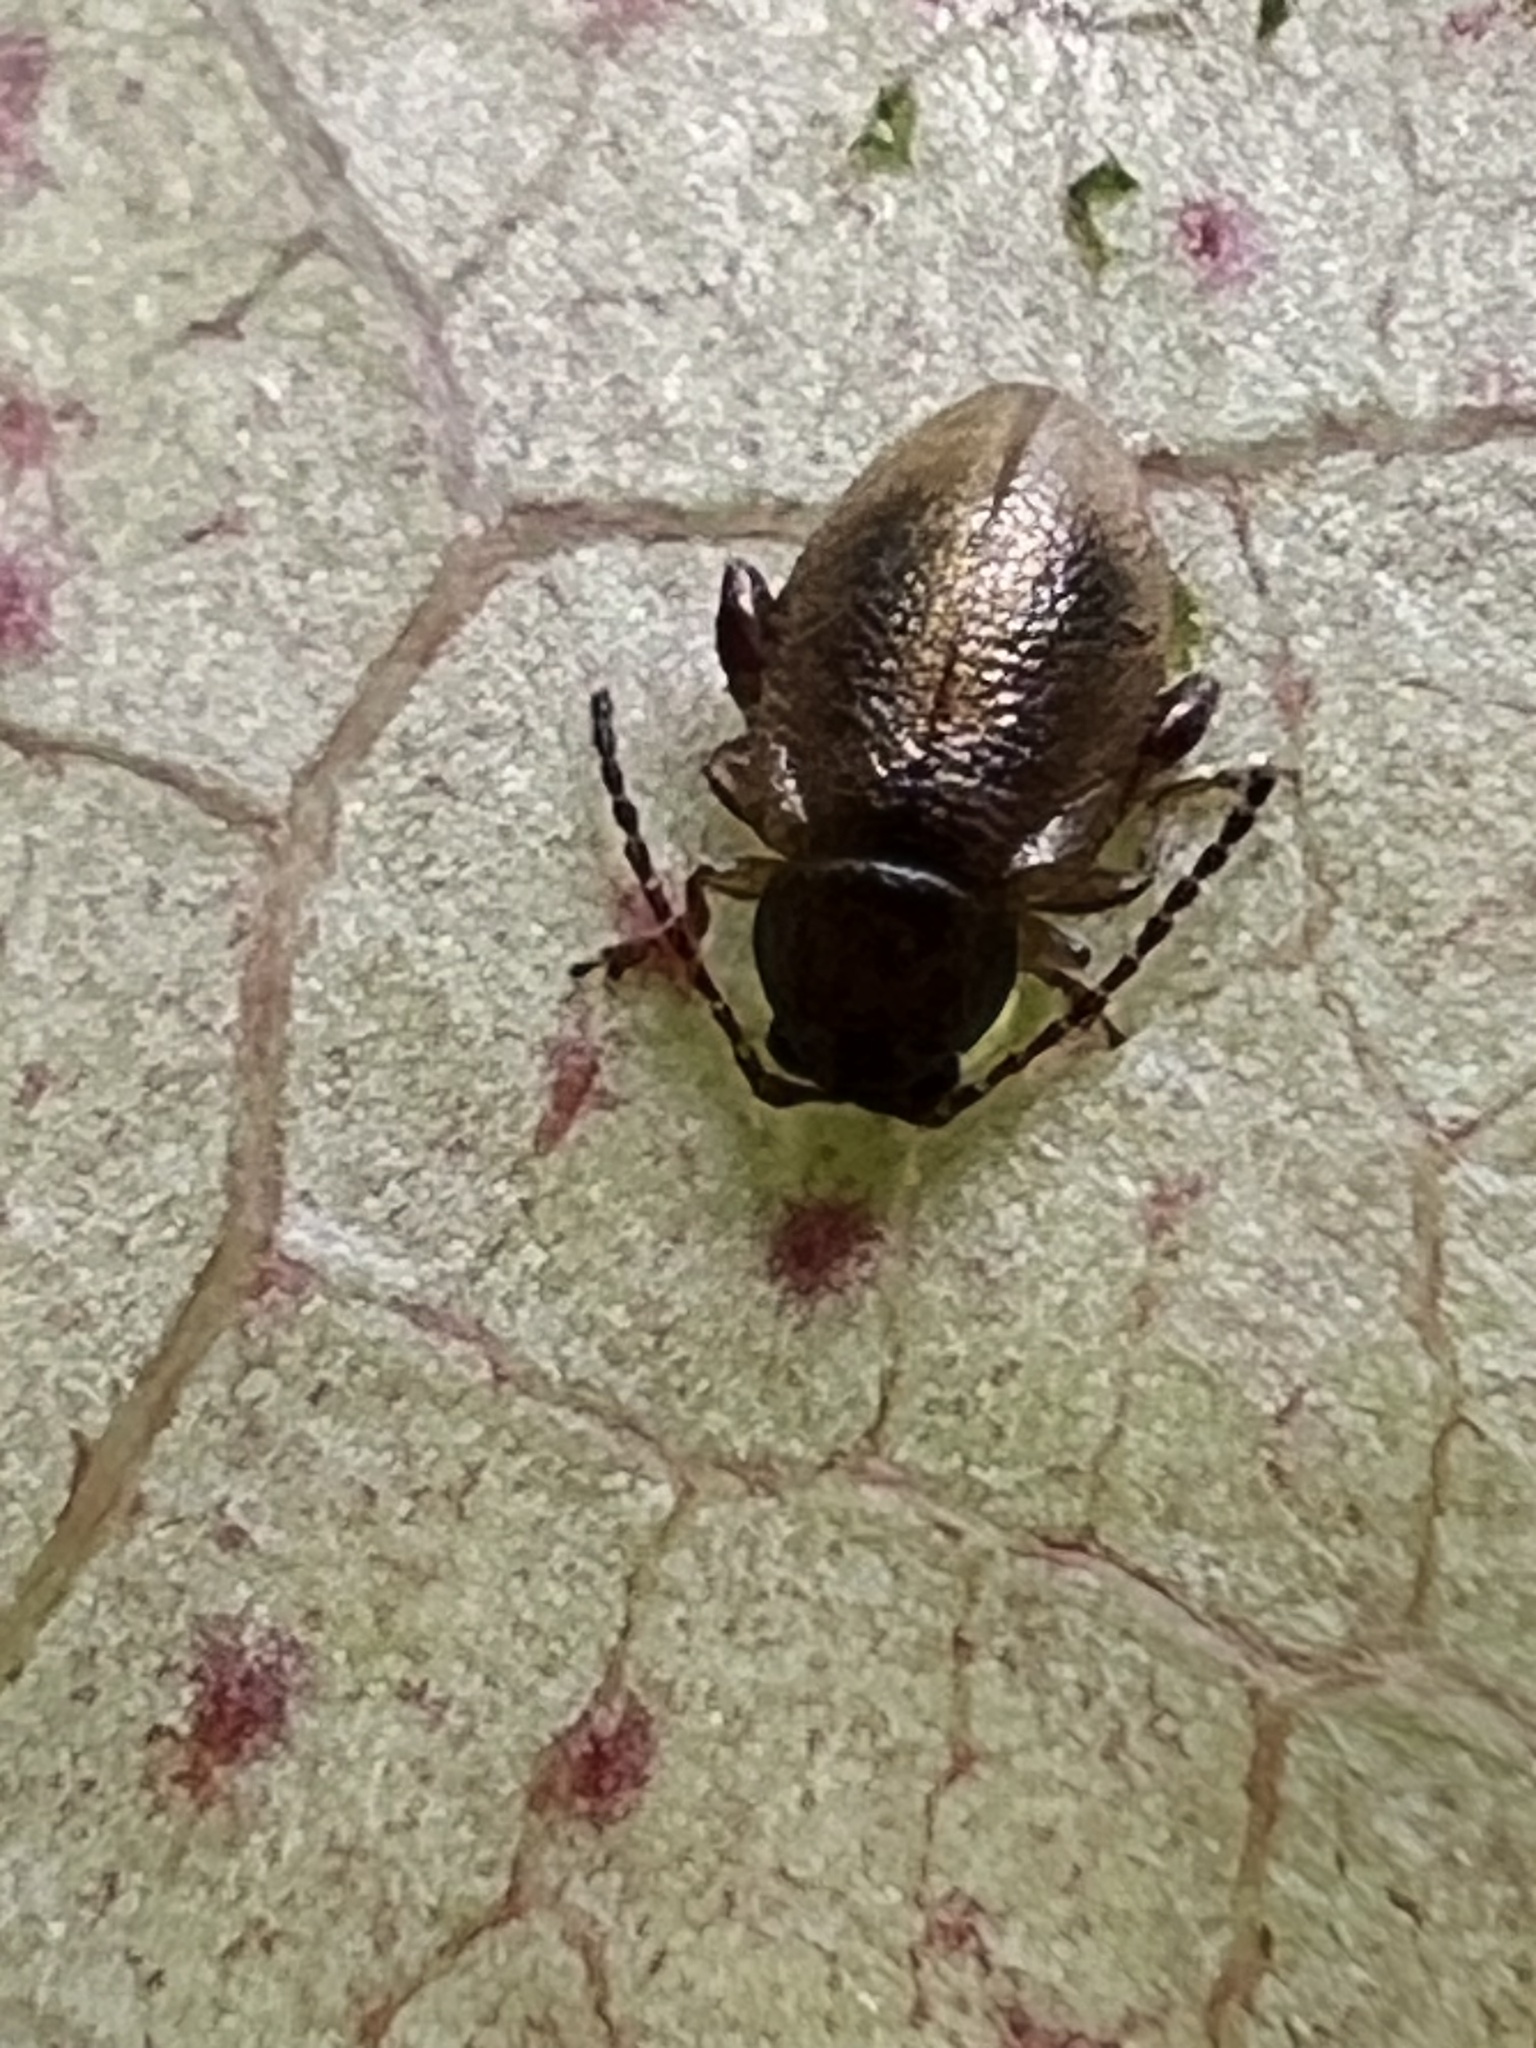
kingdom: Animalia
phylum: Arthropoda
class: Insecta
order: Coleoptera
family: Chrysomelidae
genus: Trachytetra
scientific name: Trachytetra
